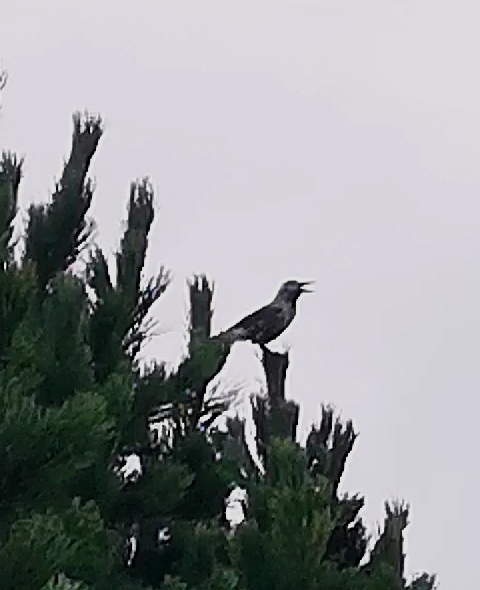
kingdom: Animalia
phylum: Chordata
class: Aves
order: Passeriformes
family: Corvidae
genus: Nucifraga
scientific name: Nucifraga caryocatactes
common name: Spotted nutcracker
